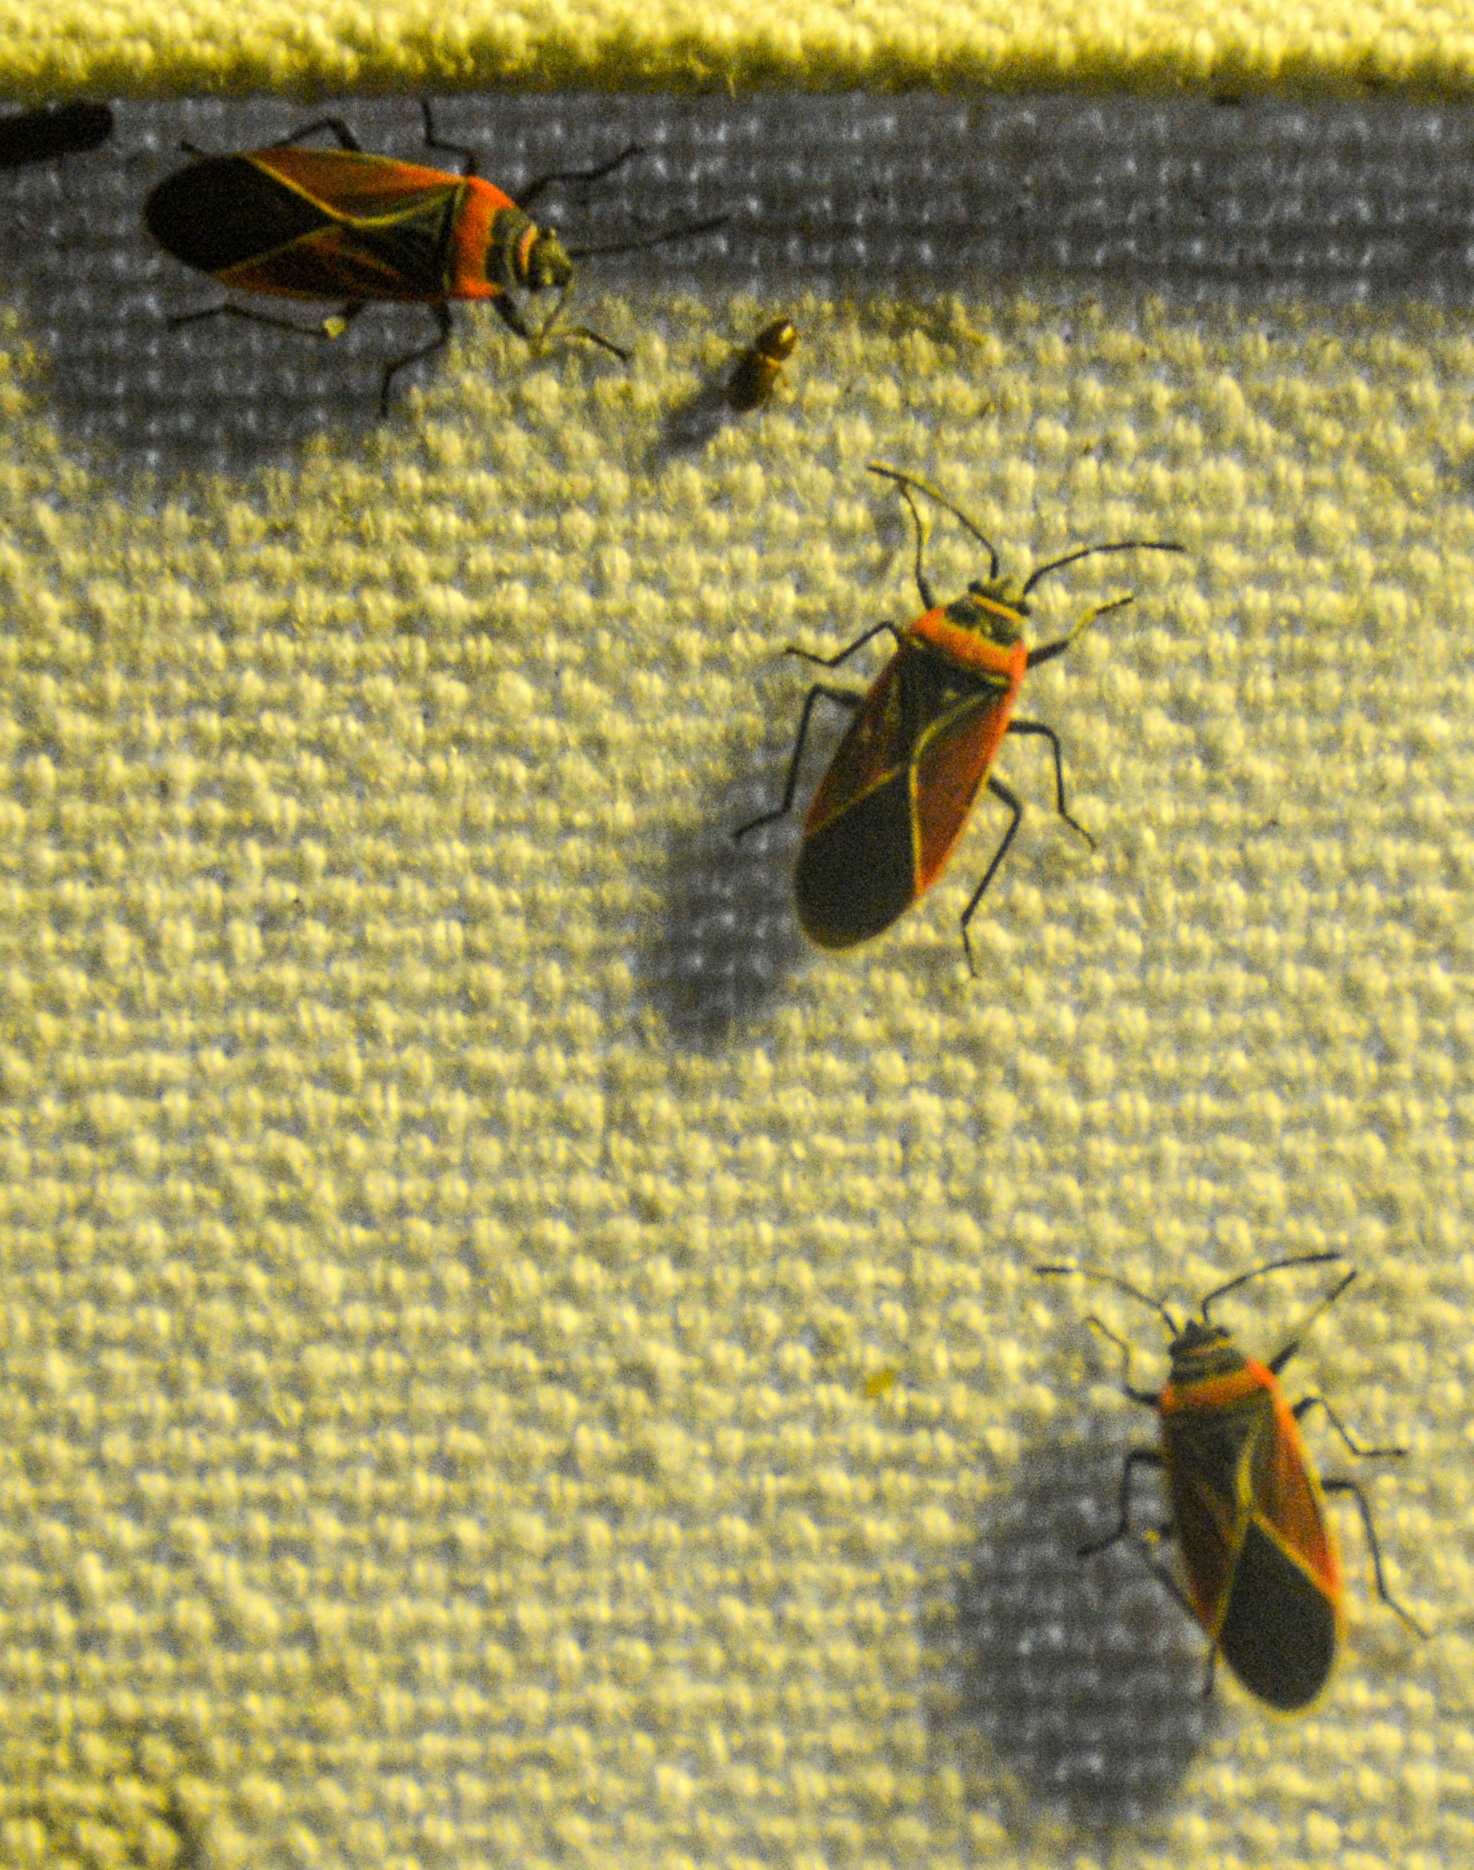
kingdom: Animalia
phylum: Arthropoda
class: Insecta
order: Hemiptera
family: Lygaeidae
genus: Neacoryphus
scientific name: Neacoryphus bicrucis
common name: Lygaeid bug
